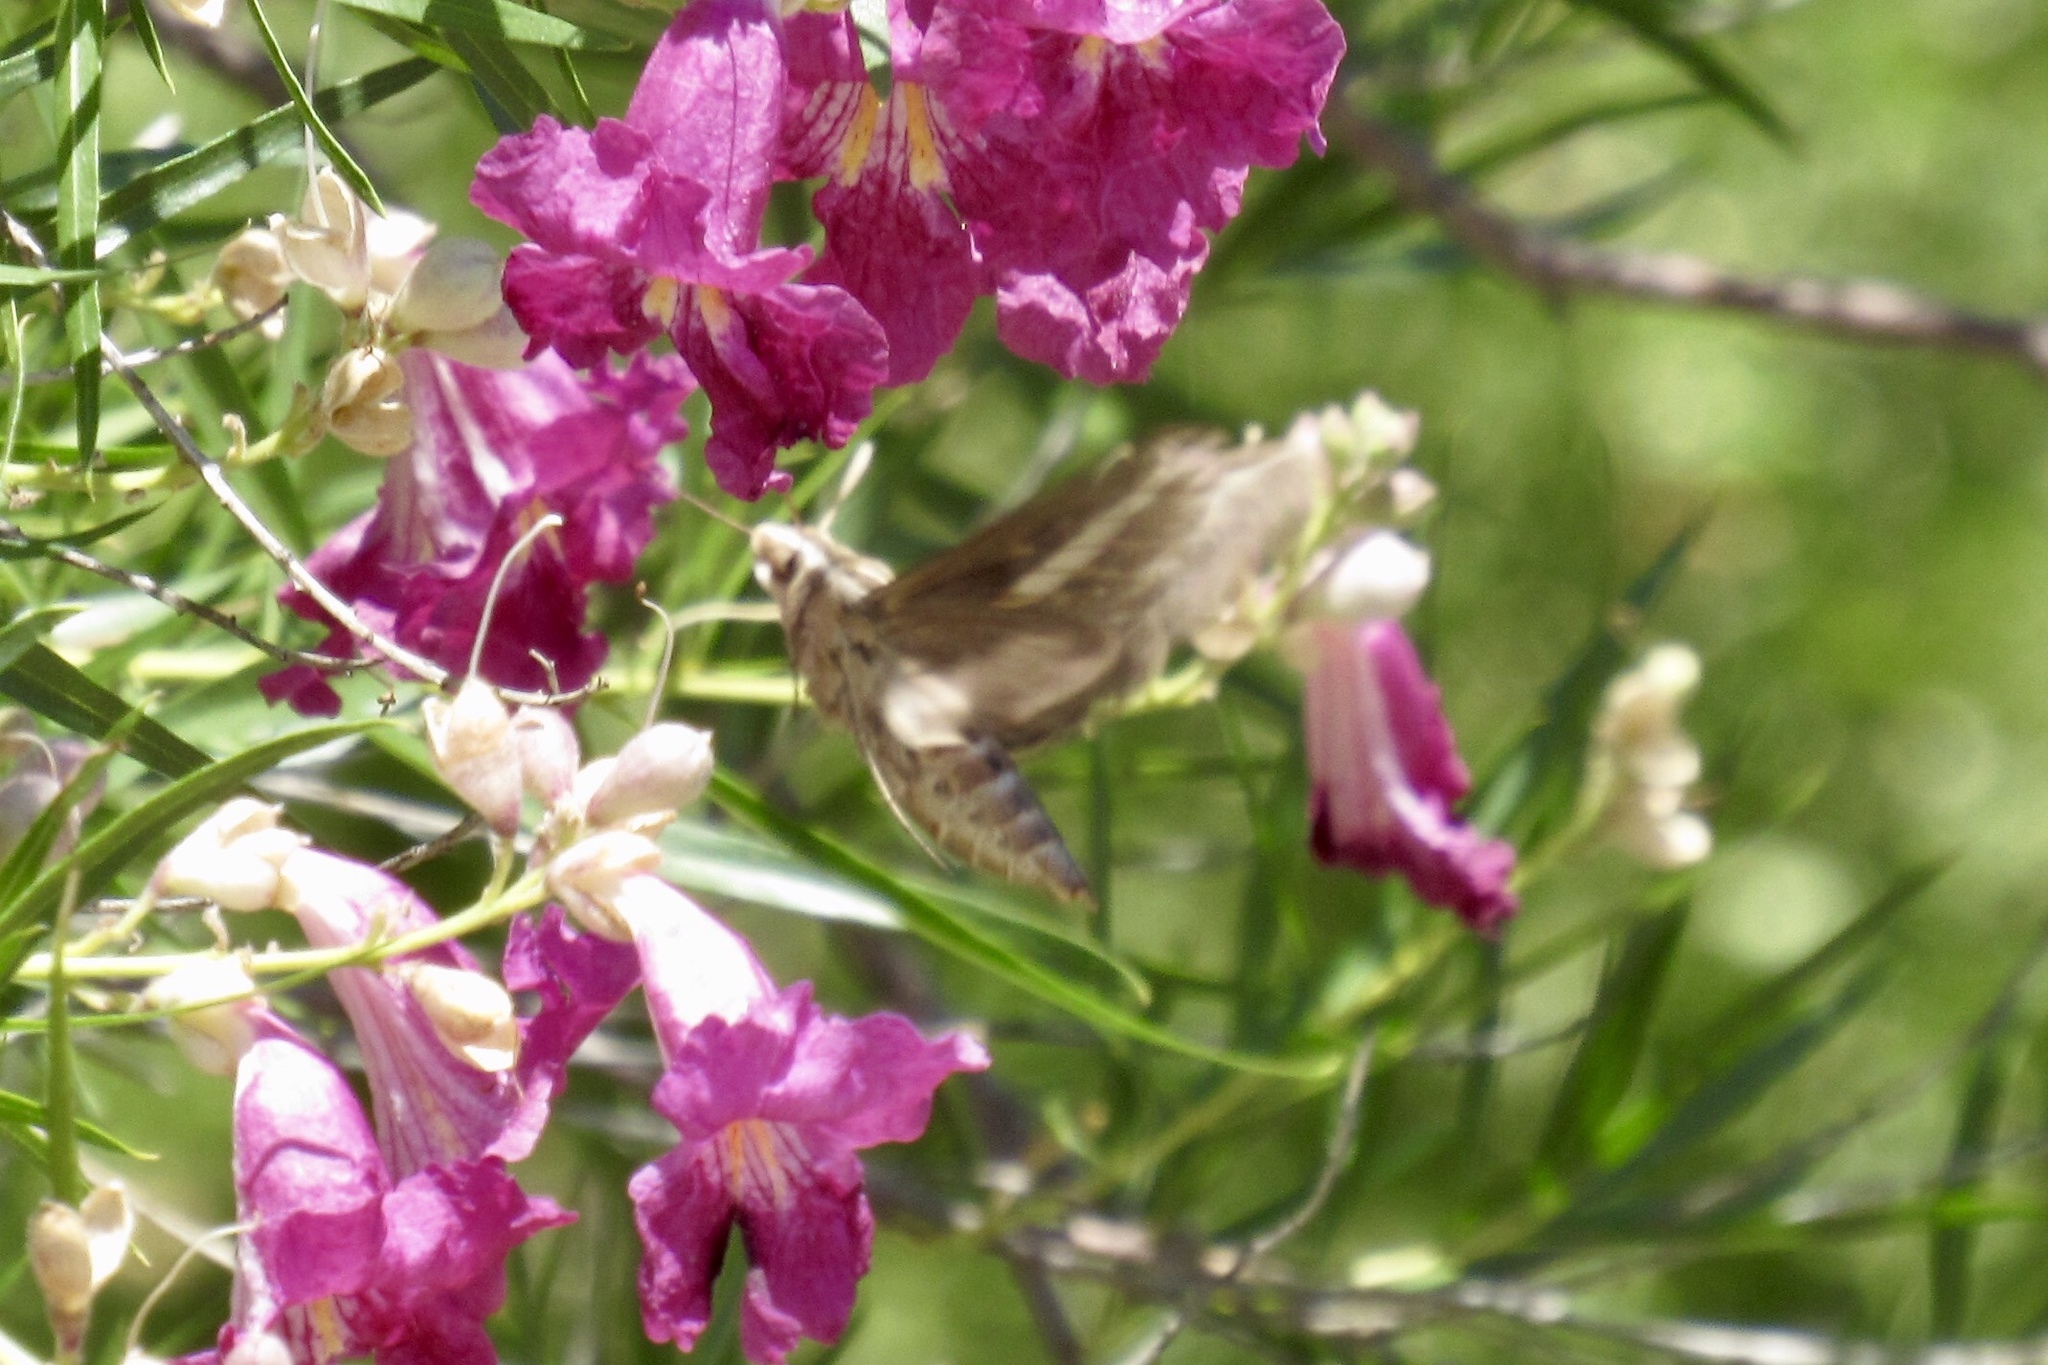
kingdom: Animalia
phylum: Arthropoda
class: Insecta
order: Lepidoptera
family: Sphingidae
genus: Hyles
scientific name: Hyles lineata
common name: White-lined sphinx
